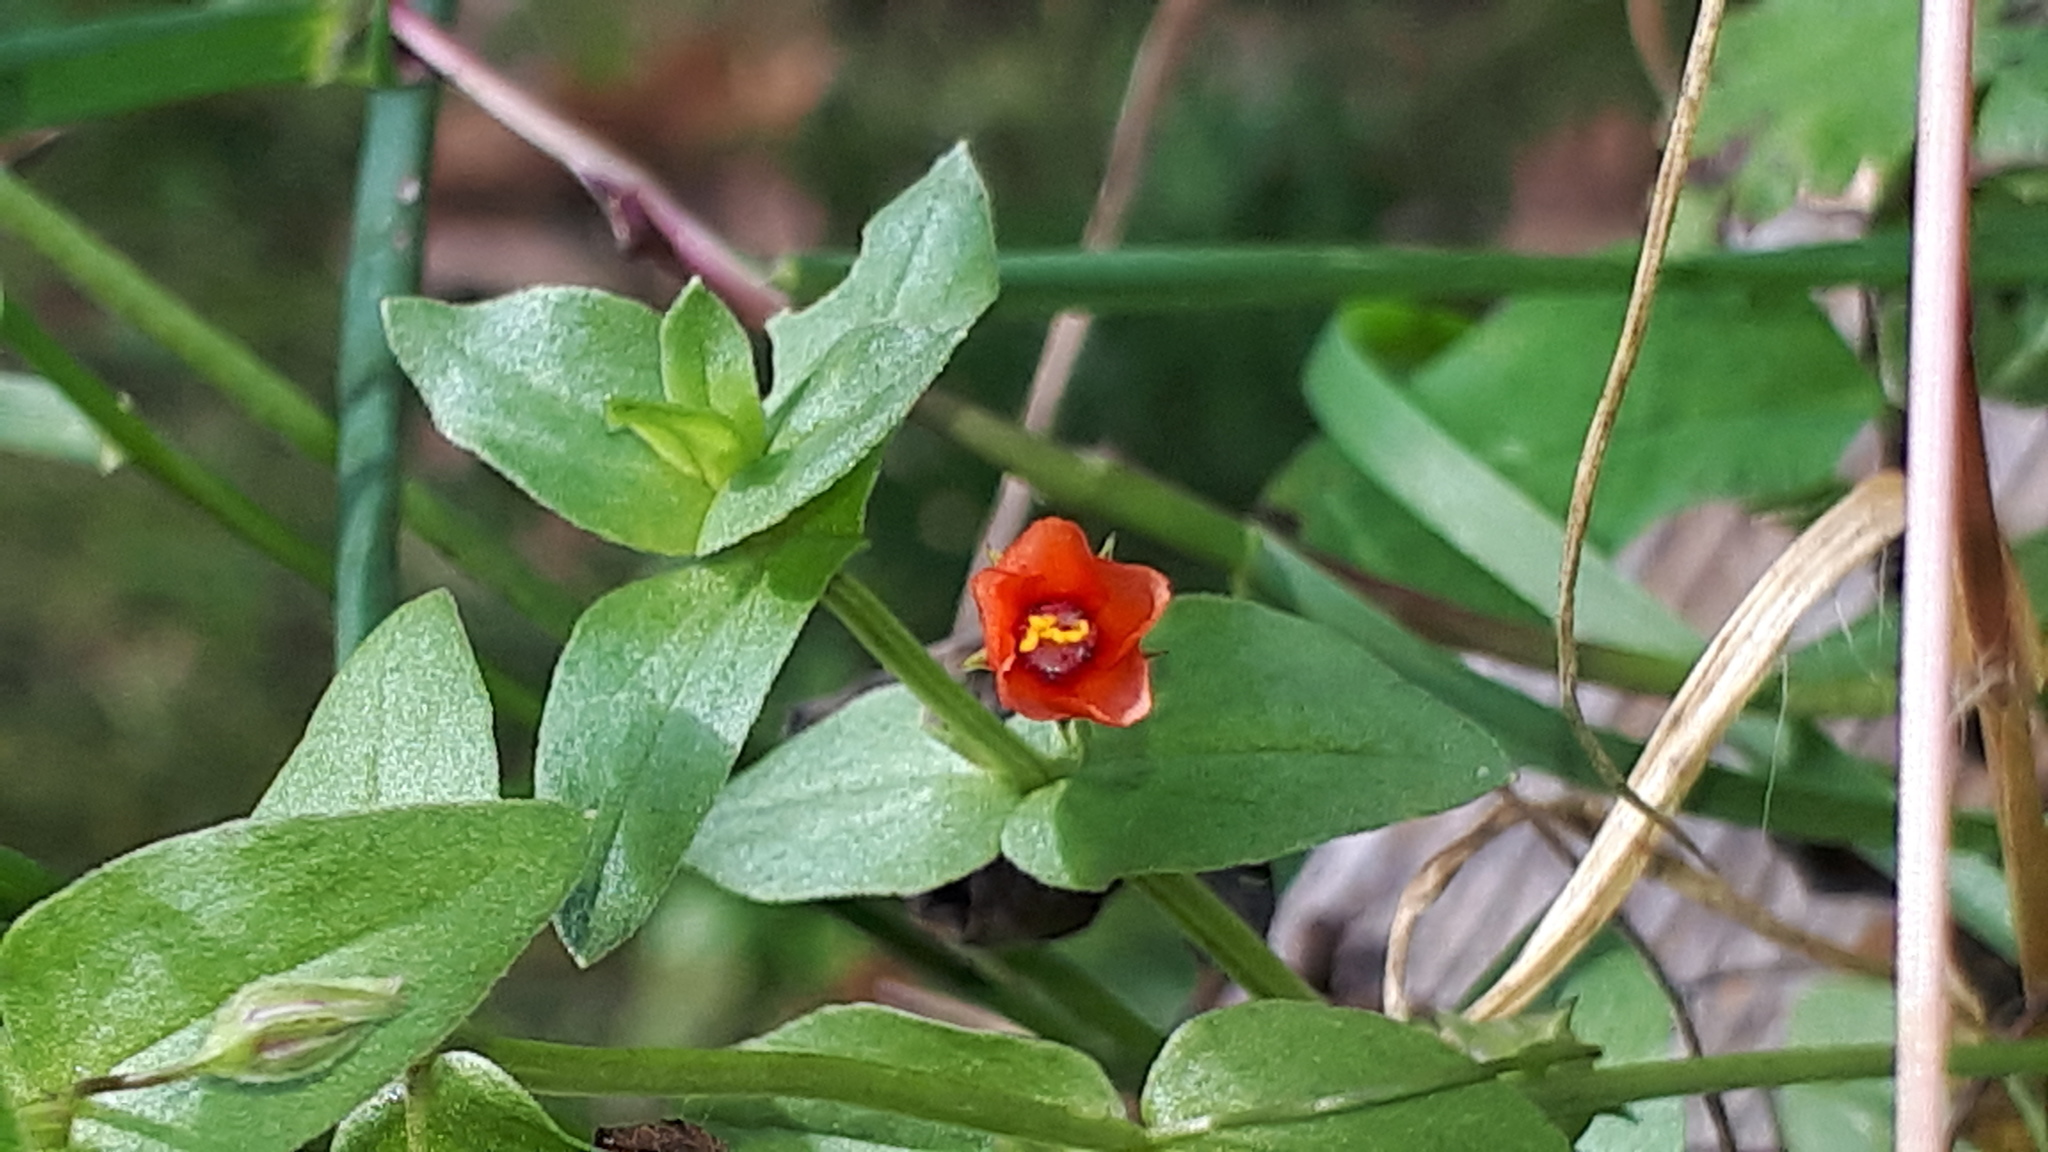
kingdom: Plantae
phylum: Tracheophyta
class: Magnoliopsida
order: Ericales
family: Primulaceae
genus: Lysimachia
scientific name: Lysimachia arvensis
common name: Scarlet pimpernel
